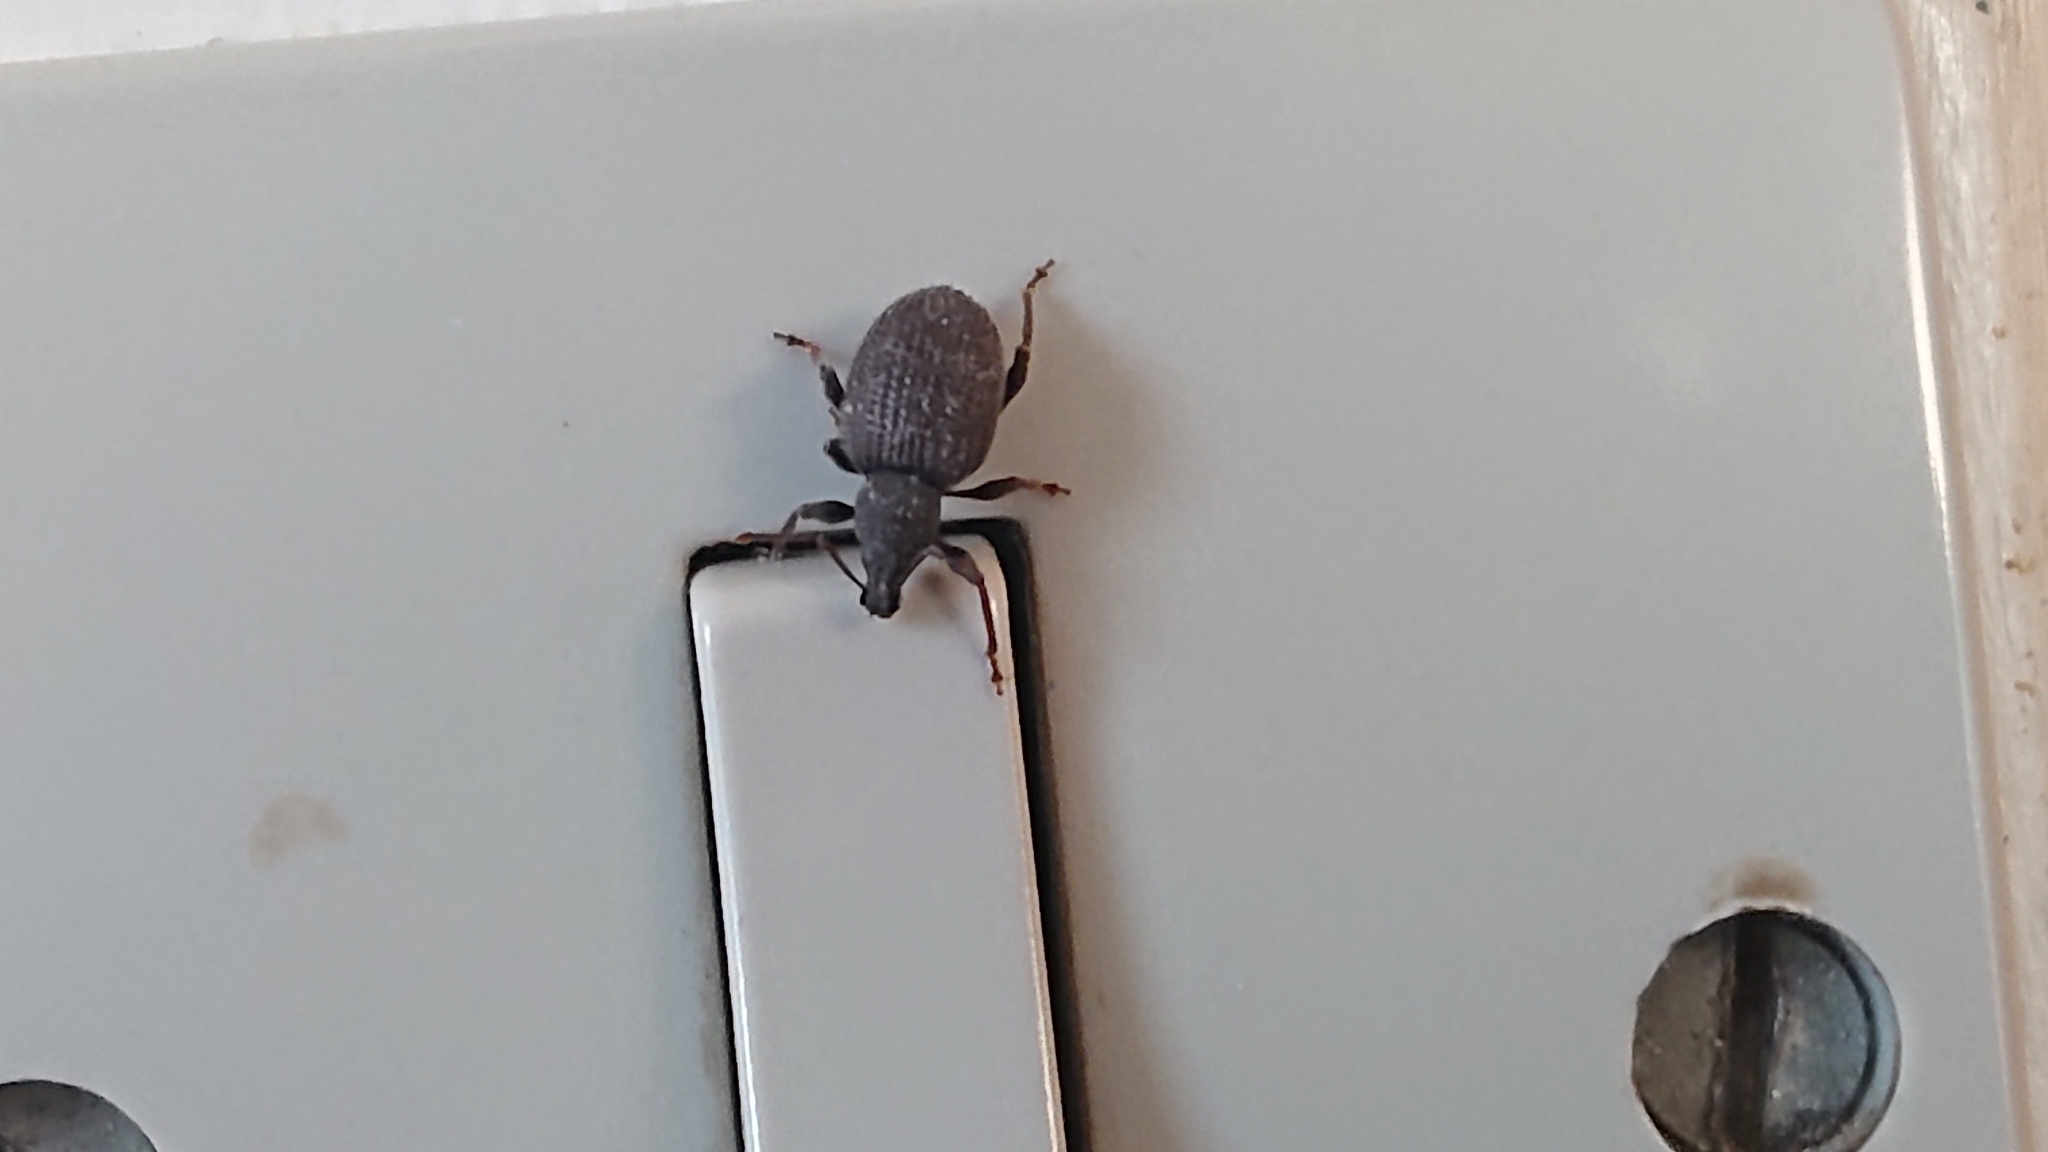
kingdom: Animalia
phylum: Arthropoda
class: Insecta
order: Coleoptera
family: Curculionidae
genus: Otiorhynchus
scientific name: Otiorhynchus sulcatus
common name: Black vine weevil
